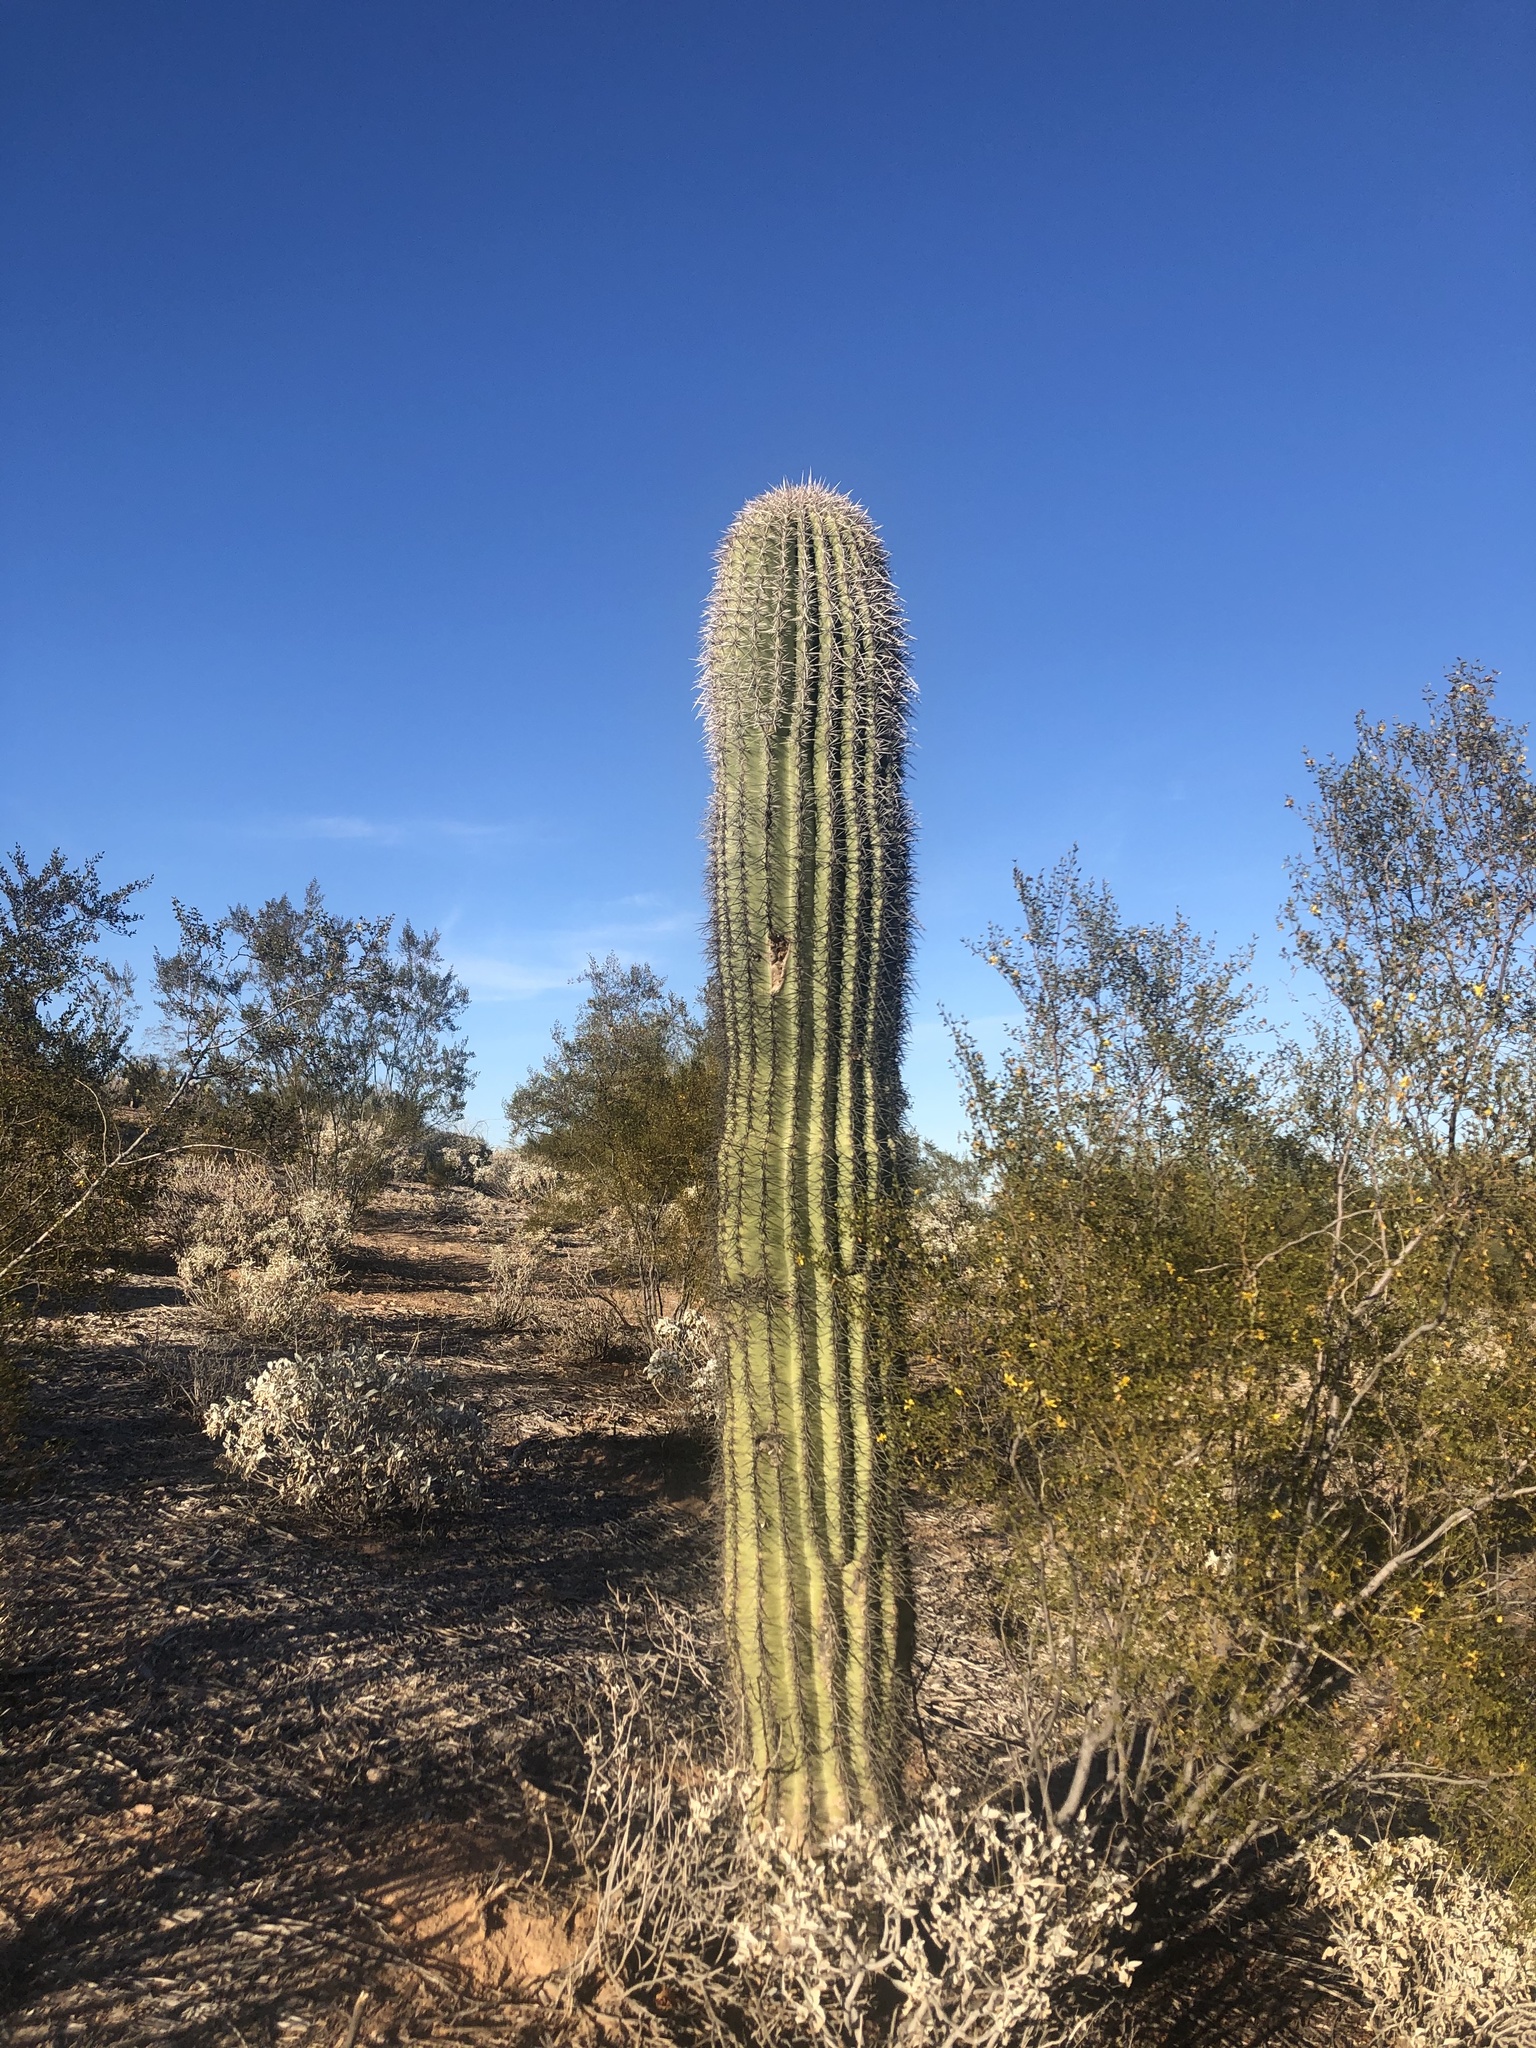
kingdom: Plantae
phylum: Tracheophyta
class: Magnoliopsida
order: Caryophyllales
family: Cactaceae
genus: Carnegiea
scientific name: Carnegiea gigantea
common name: Saguaro
